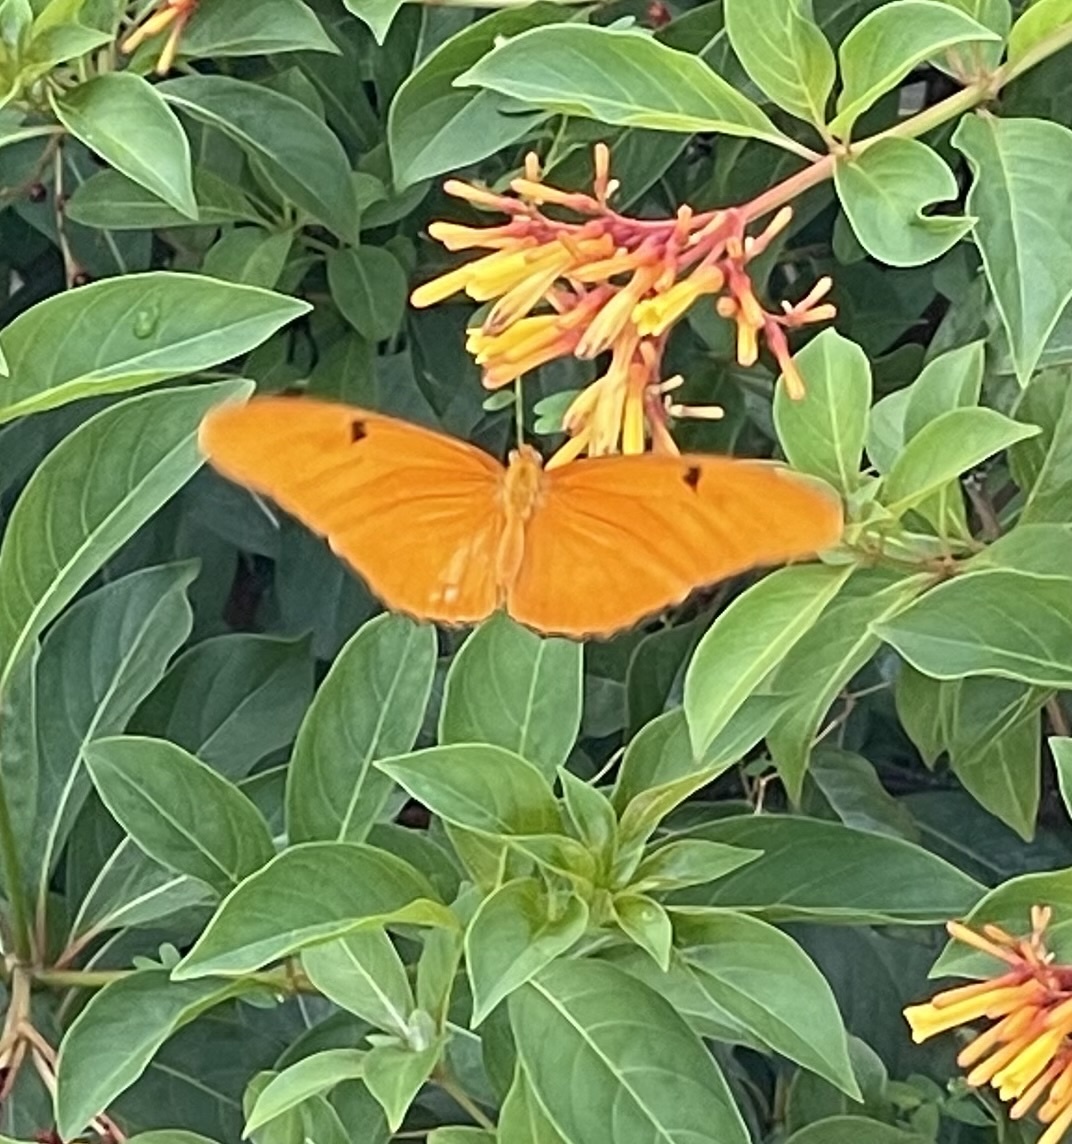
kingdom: Animalia
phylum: Arthropoda
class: Insecta
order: Lepidoptera
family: Nymphalidae
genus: Dryas
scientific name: Dryas iulia
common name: Flambeau
